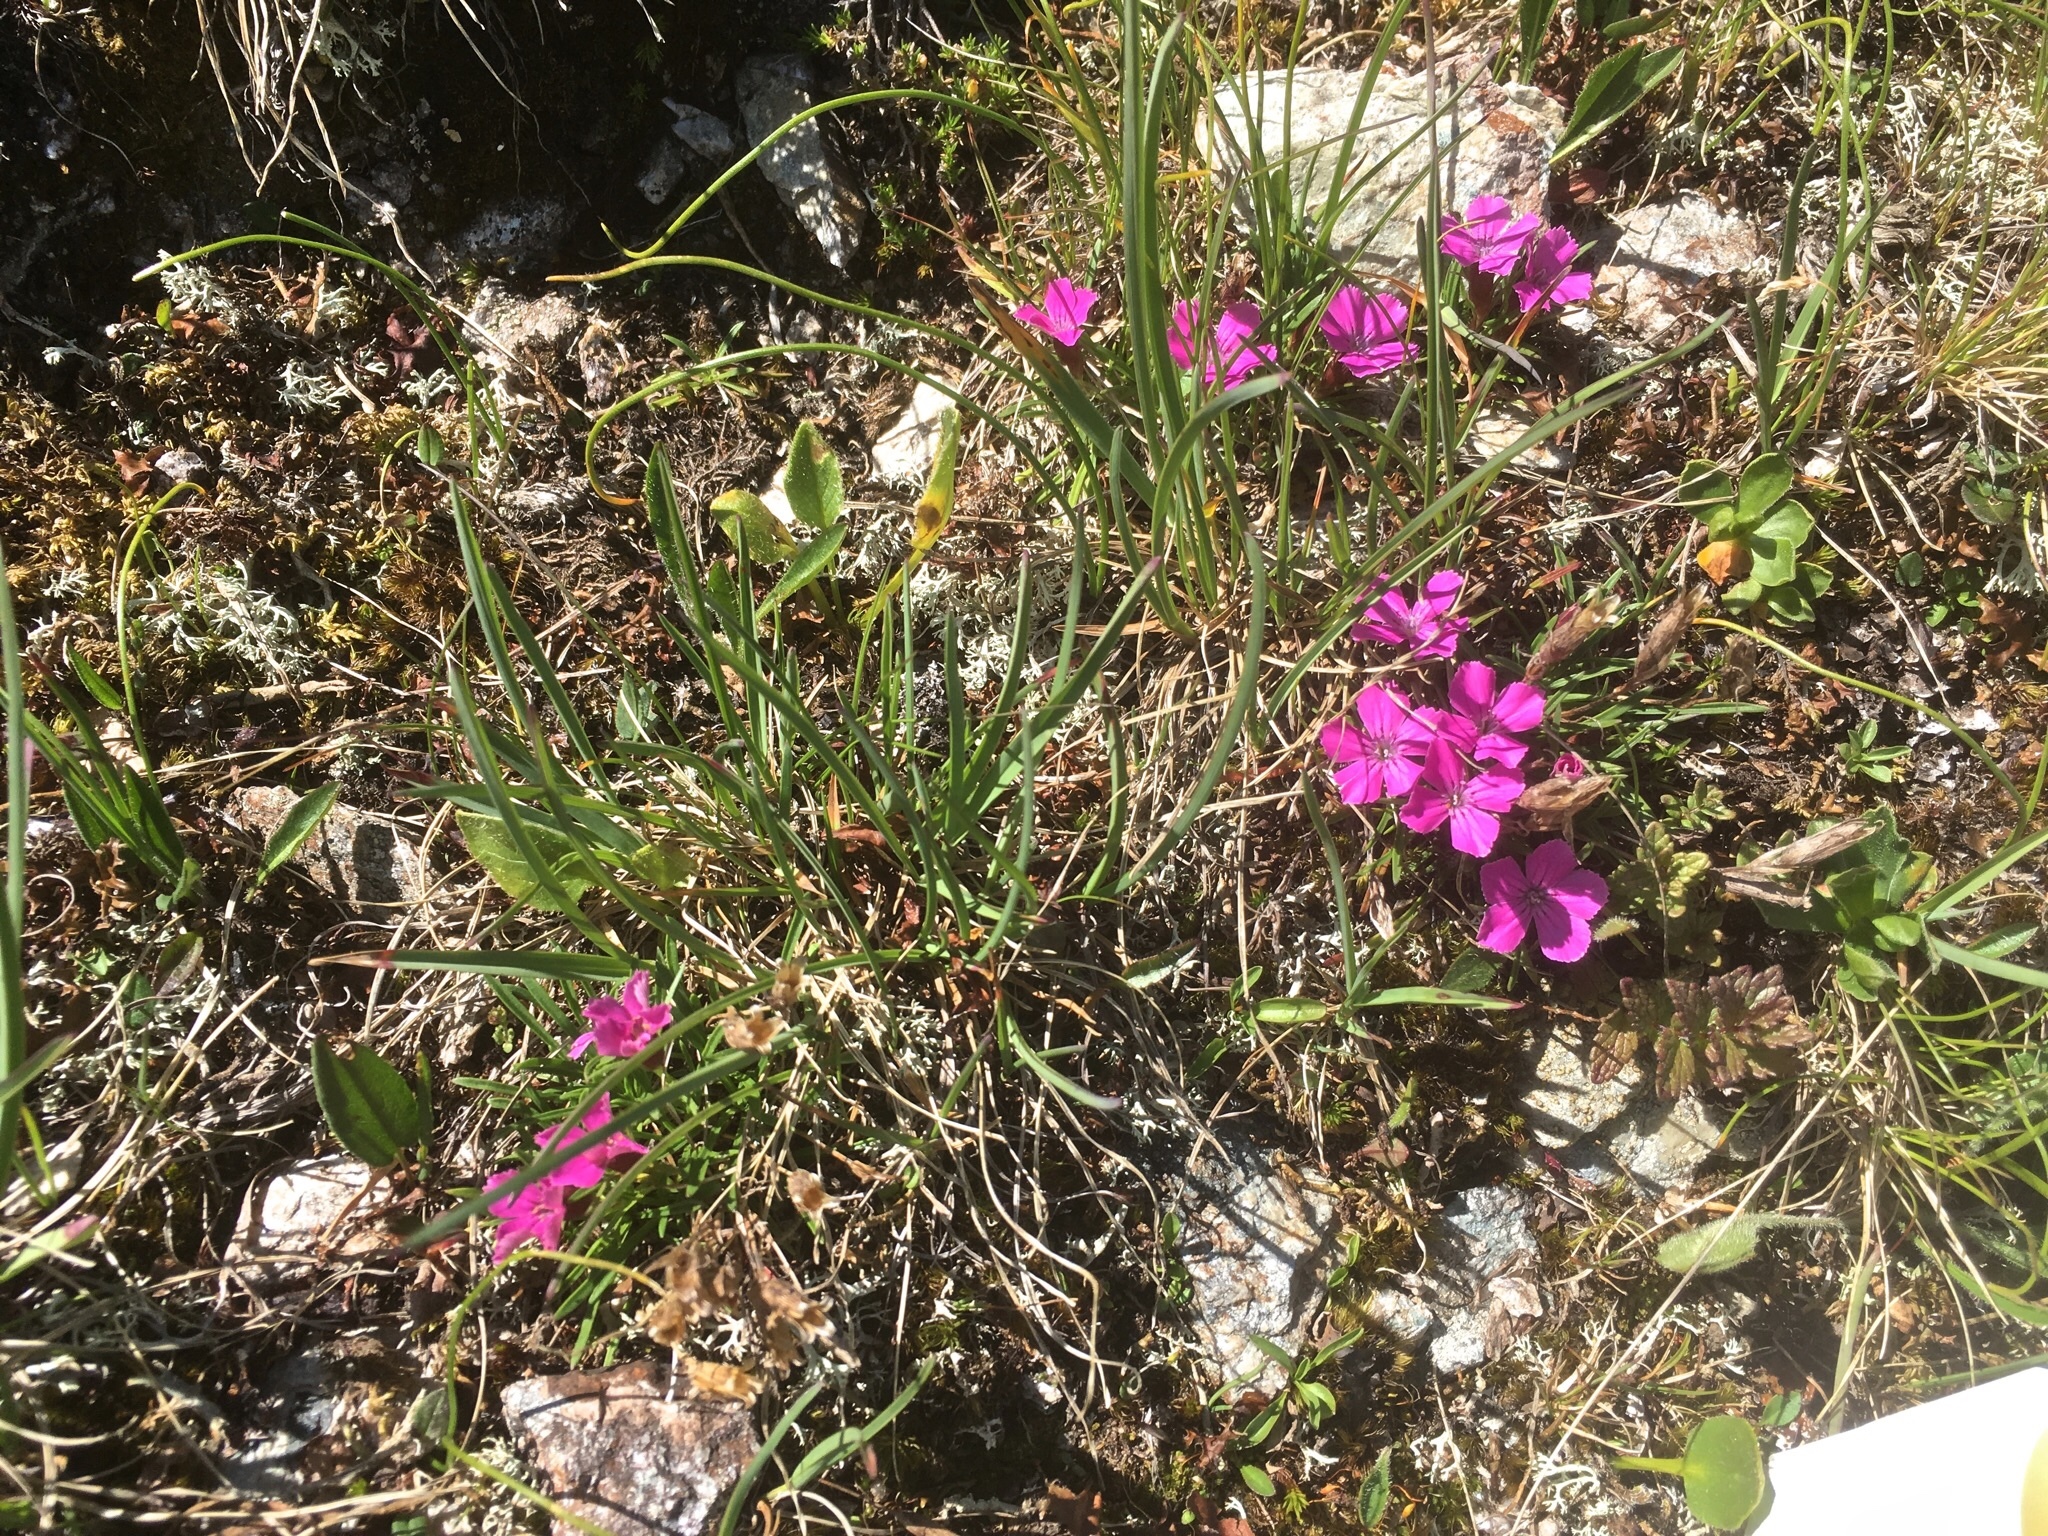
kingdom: Plantae
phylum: Tracheophyta
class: Magnoliopsida
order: Caryophyllales
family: Caryophyllaceae
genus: Dianthus
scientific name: Dianthus glacialis
